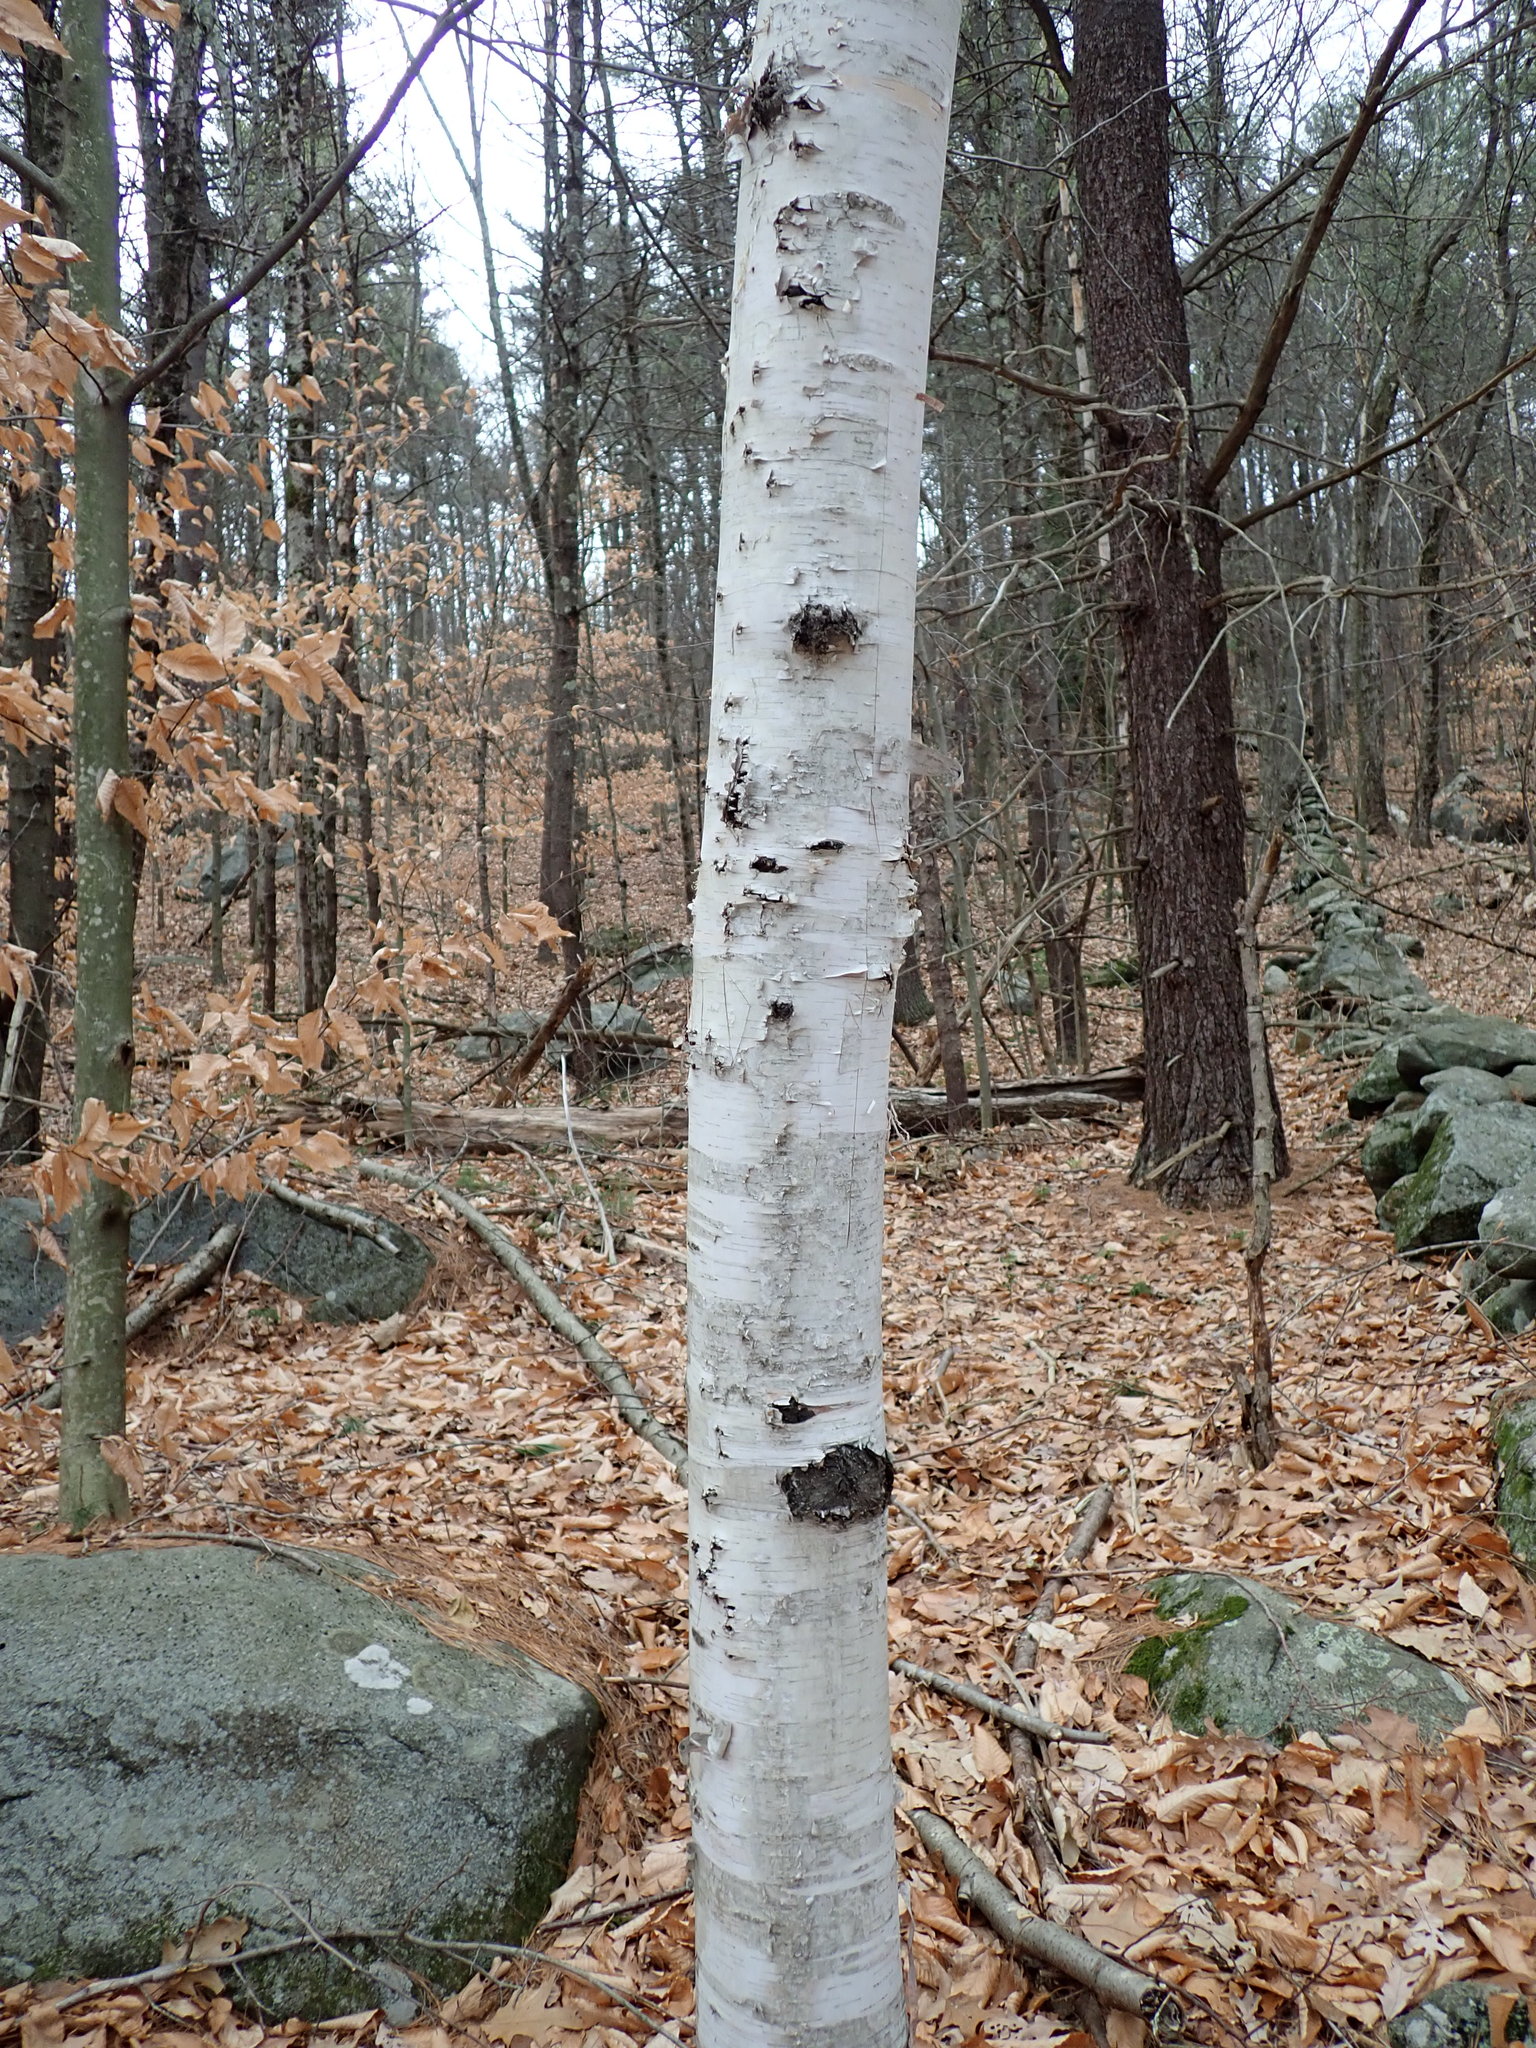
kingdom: Plantae
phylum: Tracheophyta
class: Magnoliopsida
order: Fagales
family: Betulaceae
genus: Betula
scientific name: Betula papyrifera
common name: Paper birch
